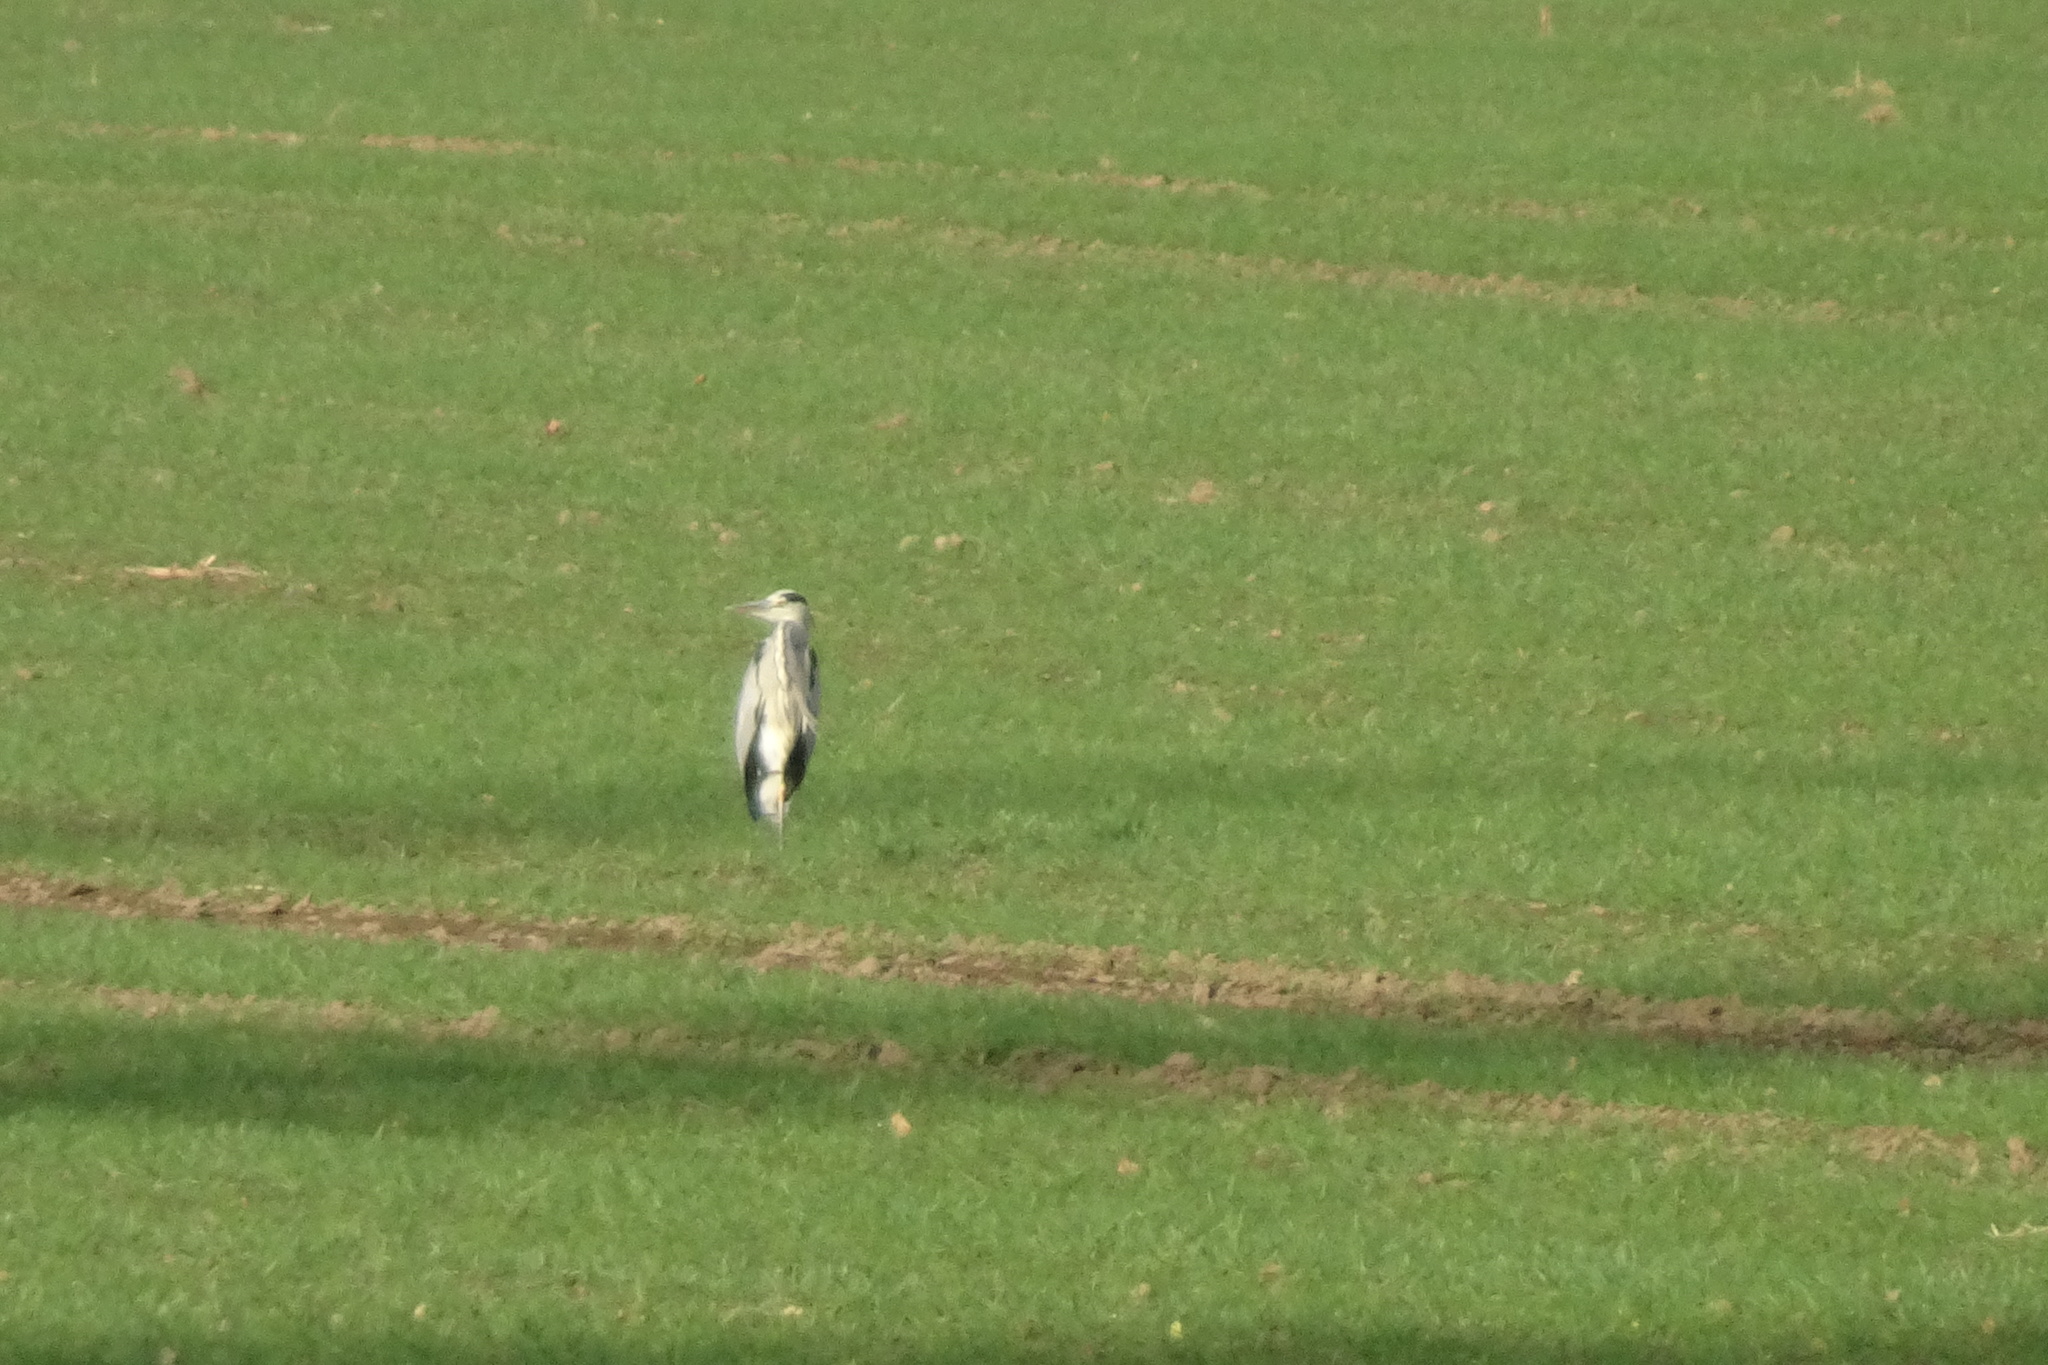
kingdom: Animalia
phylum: Chordata
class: Aves
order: Pelecaniformes
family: Ardeidae
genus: Ardea
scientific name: Ardea cinerea
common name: Grey heron
